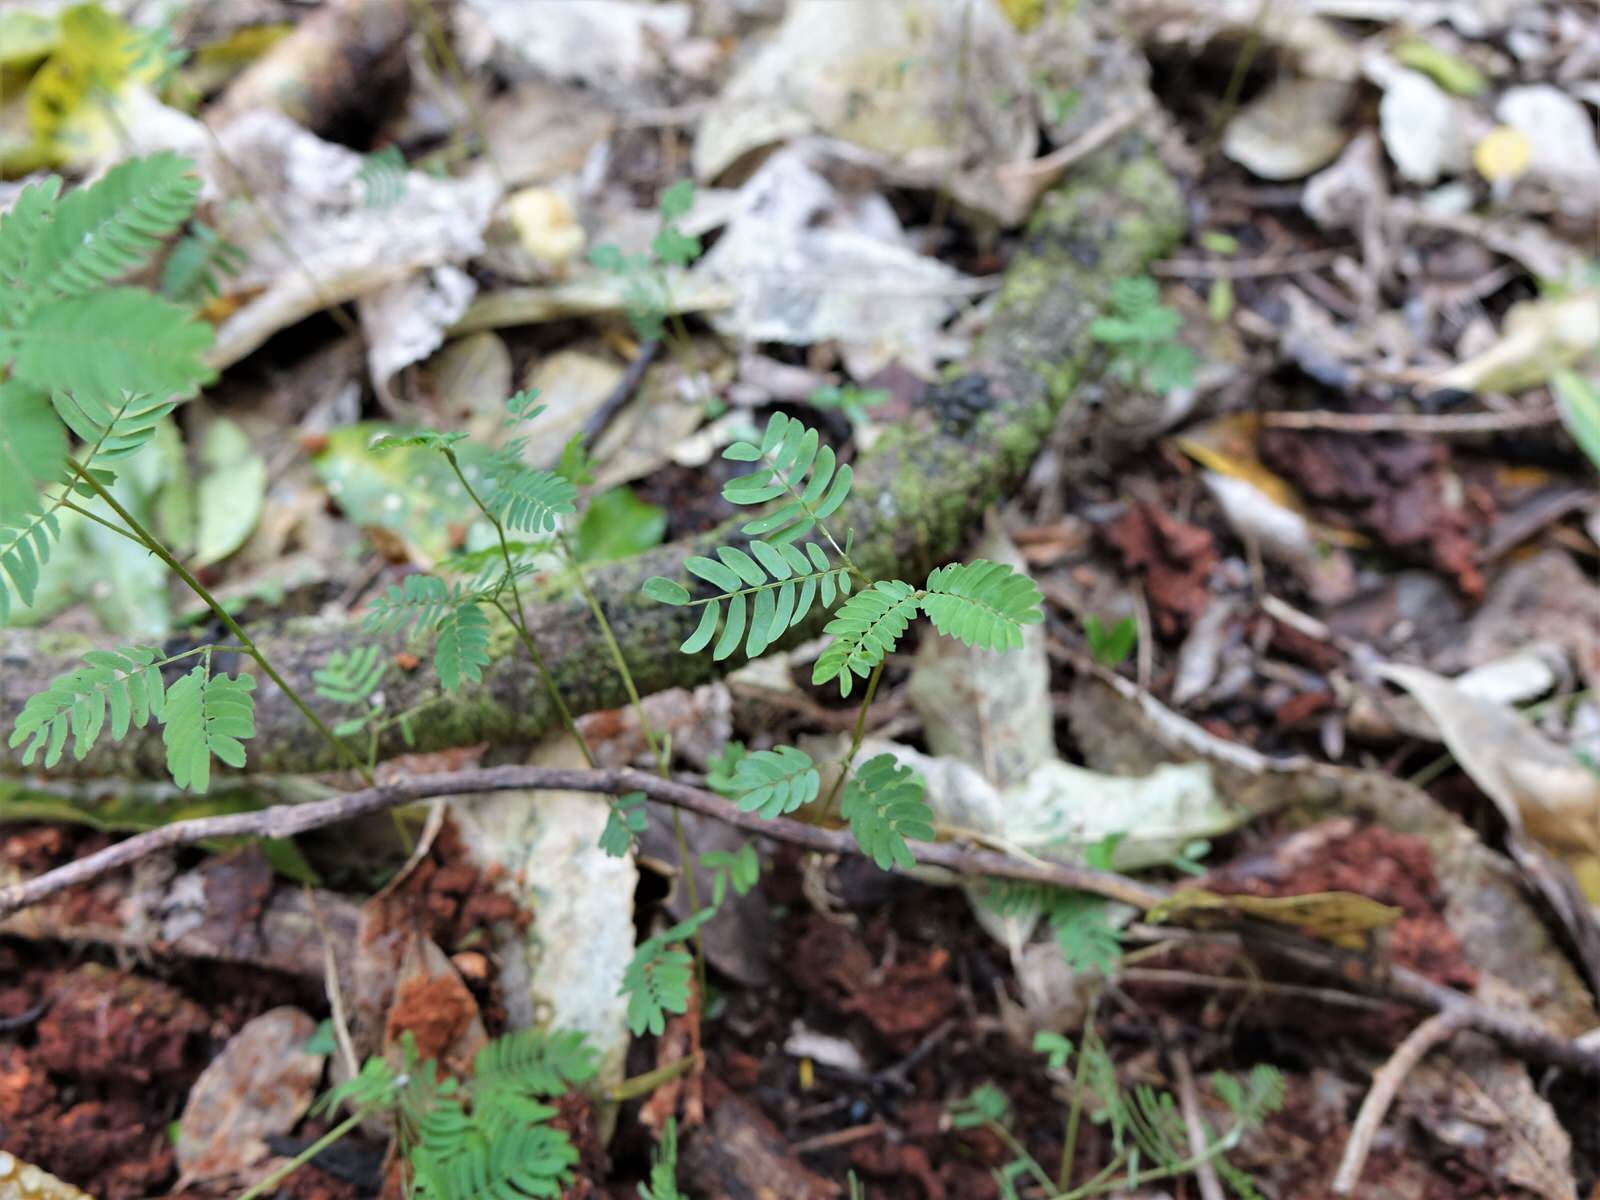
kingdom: Plantae
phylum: Tracheophyta
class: Magnoliopsida
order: Fabales
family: Fabaceae
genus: Paraserianthes
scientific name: Paraserianthes lophantha
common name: Plume albizia
